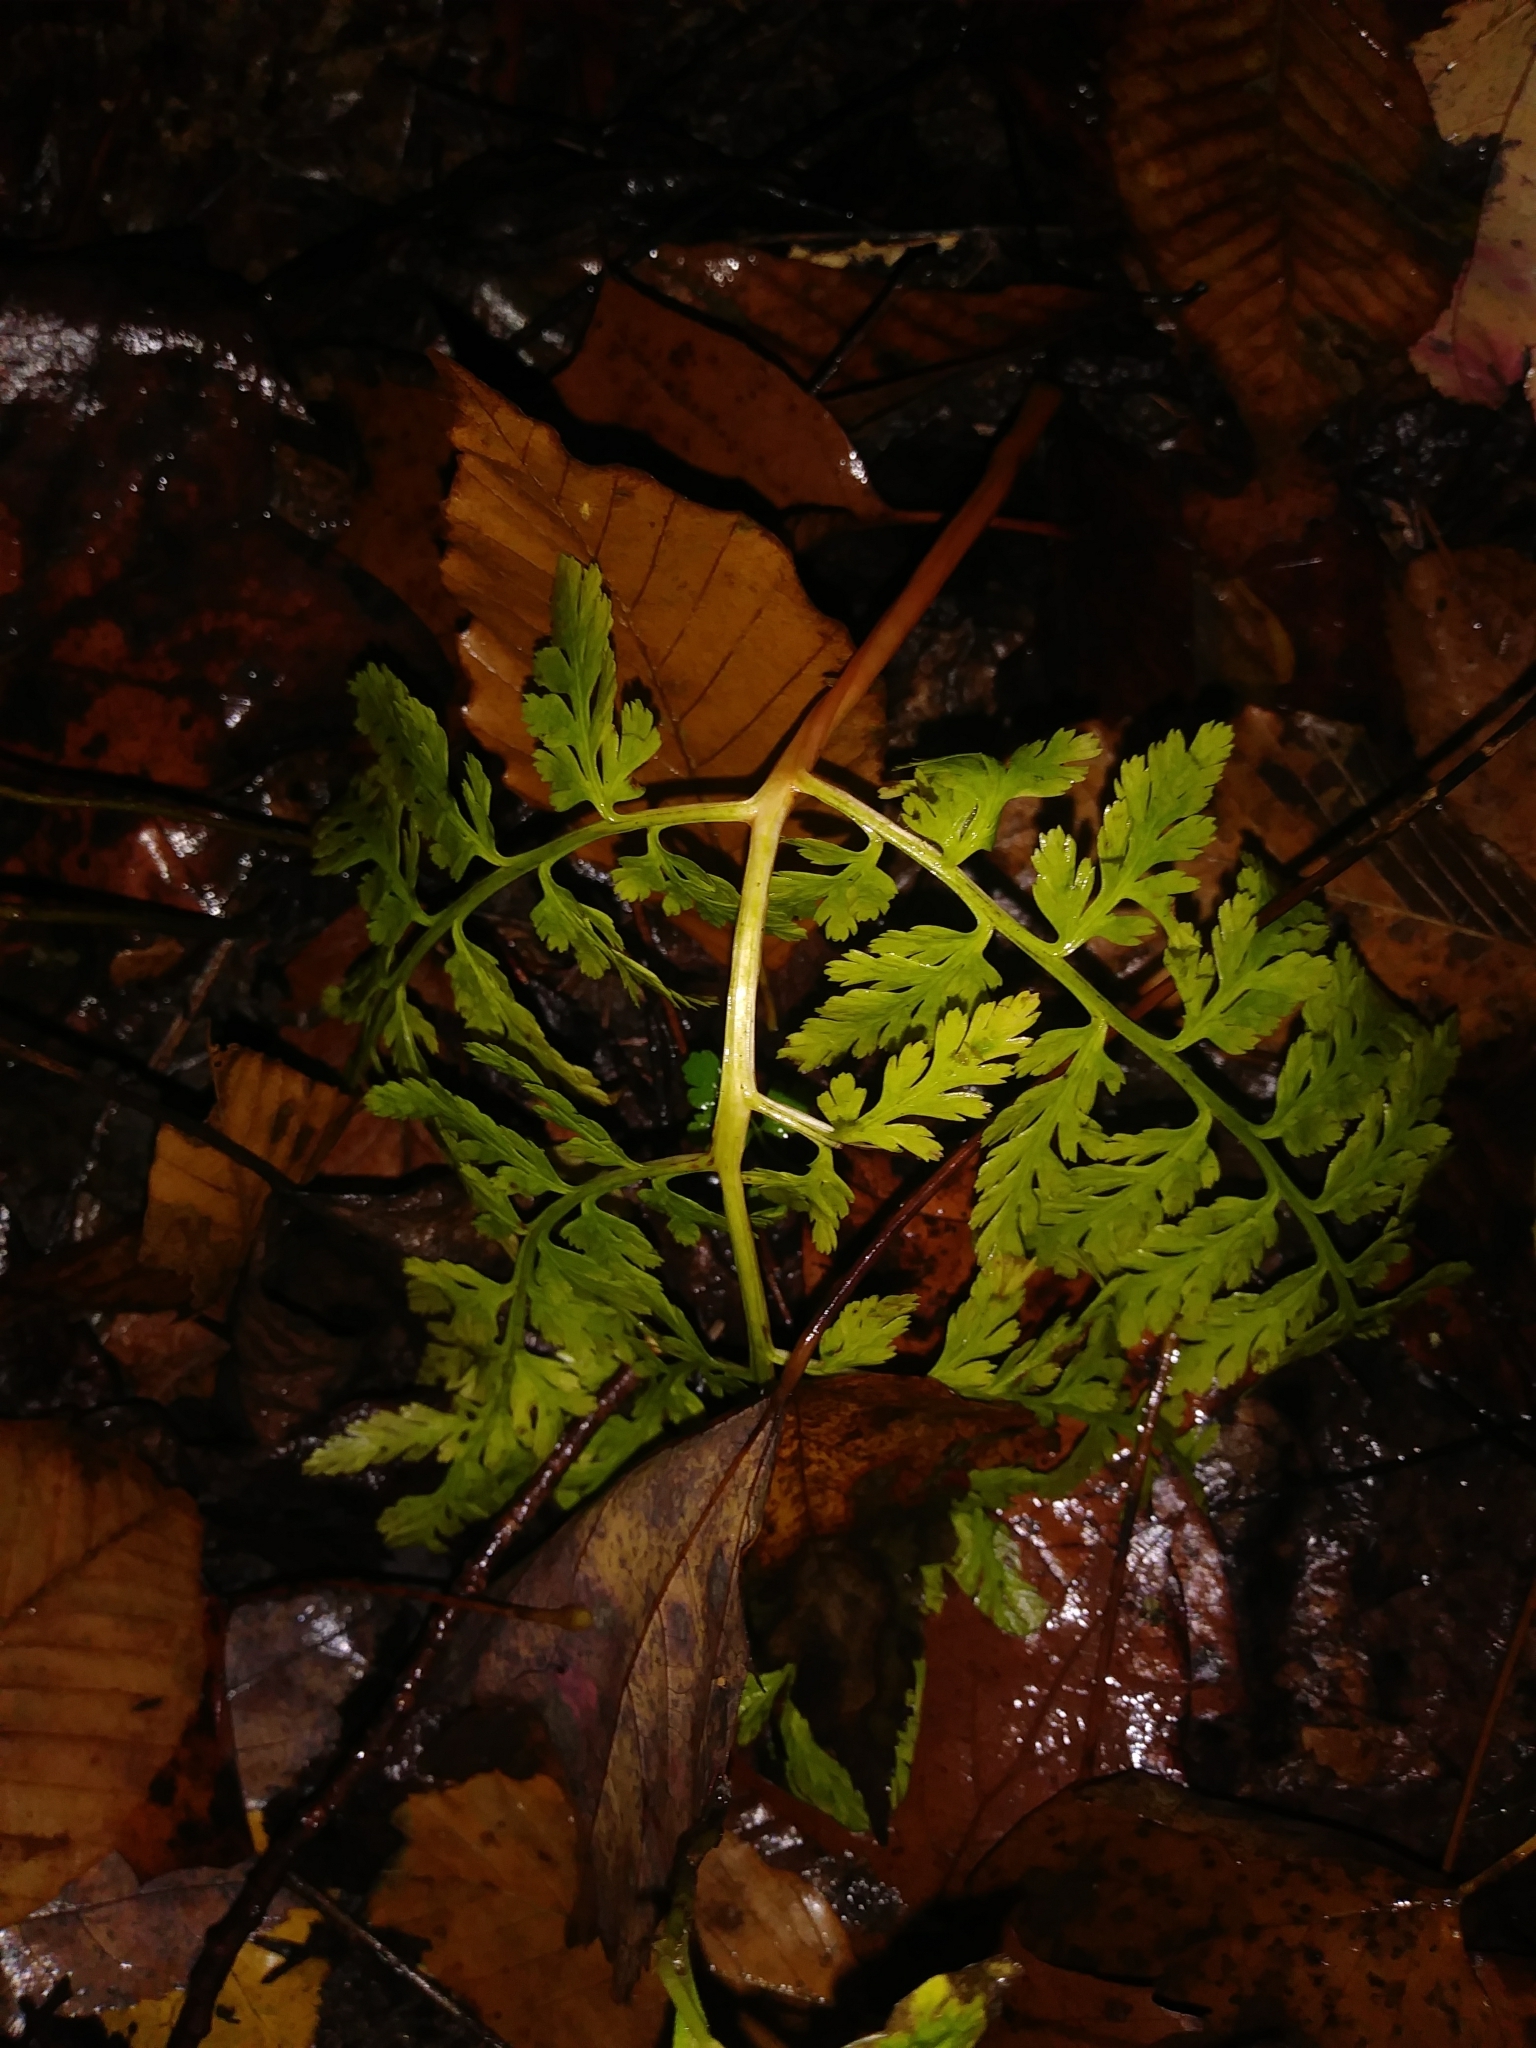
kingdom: Plantae
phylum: Tracheophyta
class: Polypodiopsida
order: Ophioglossales
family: Ophioglossaceae
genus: Botrypus
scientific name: Botrypus virginianus
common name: Common grapefern
